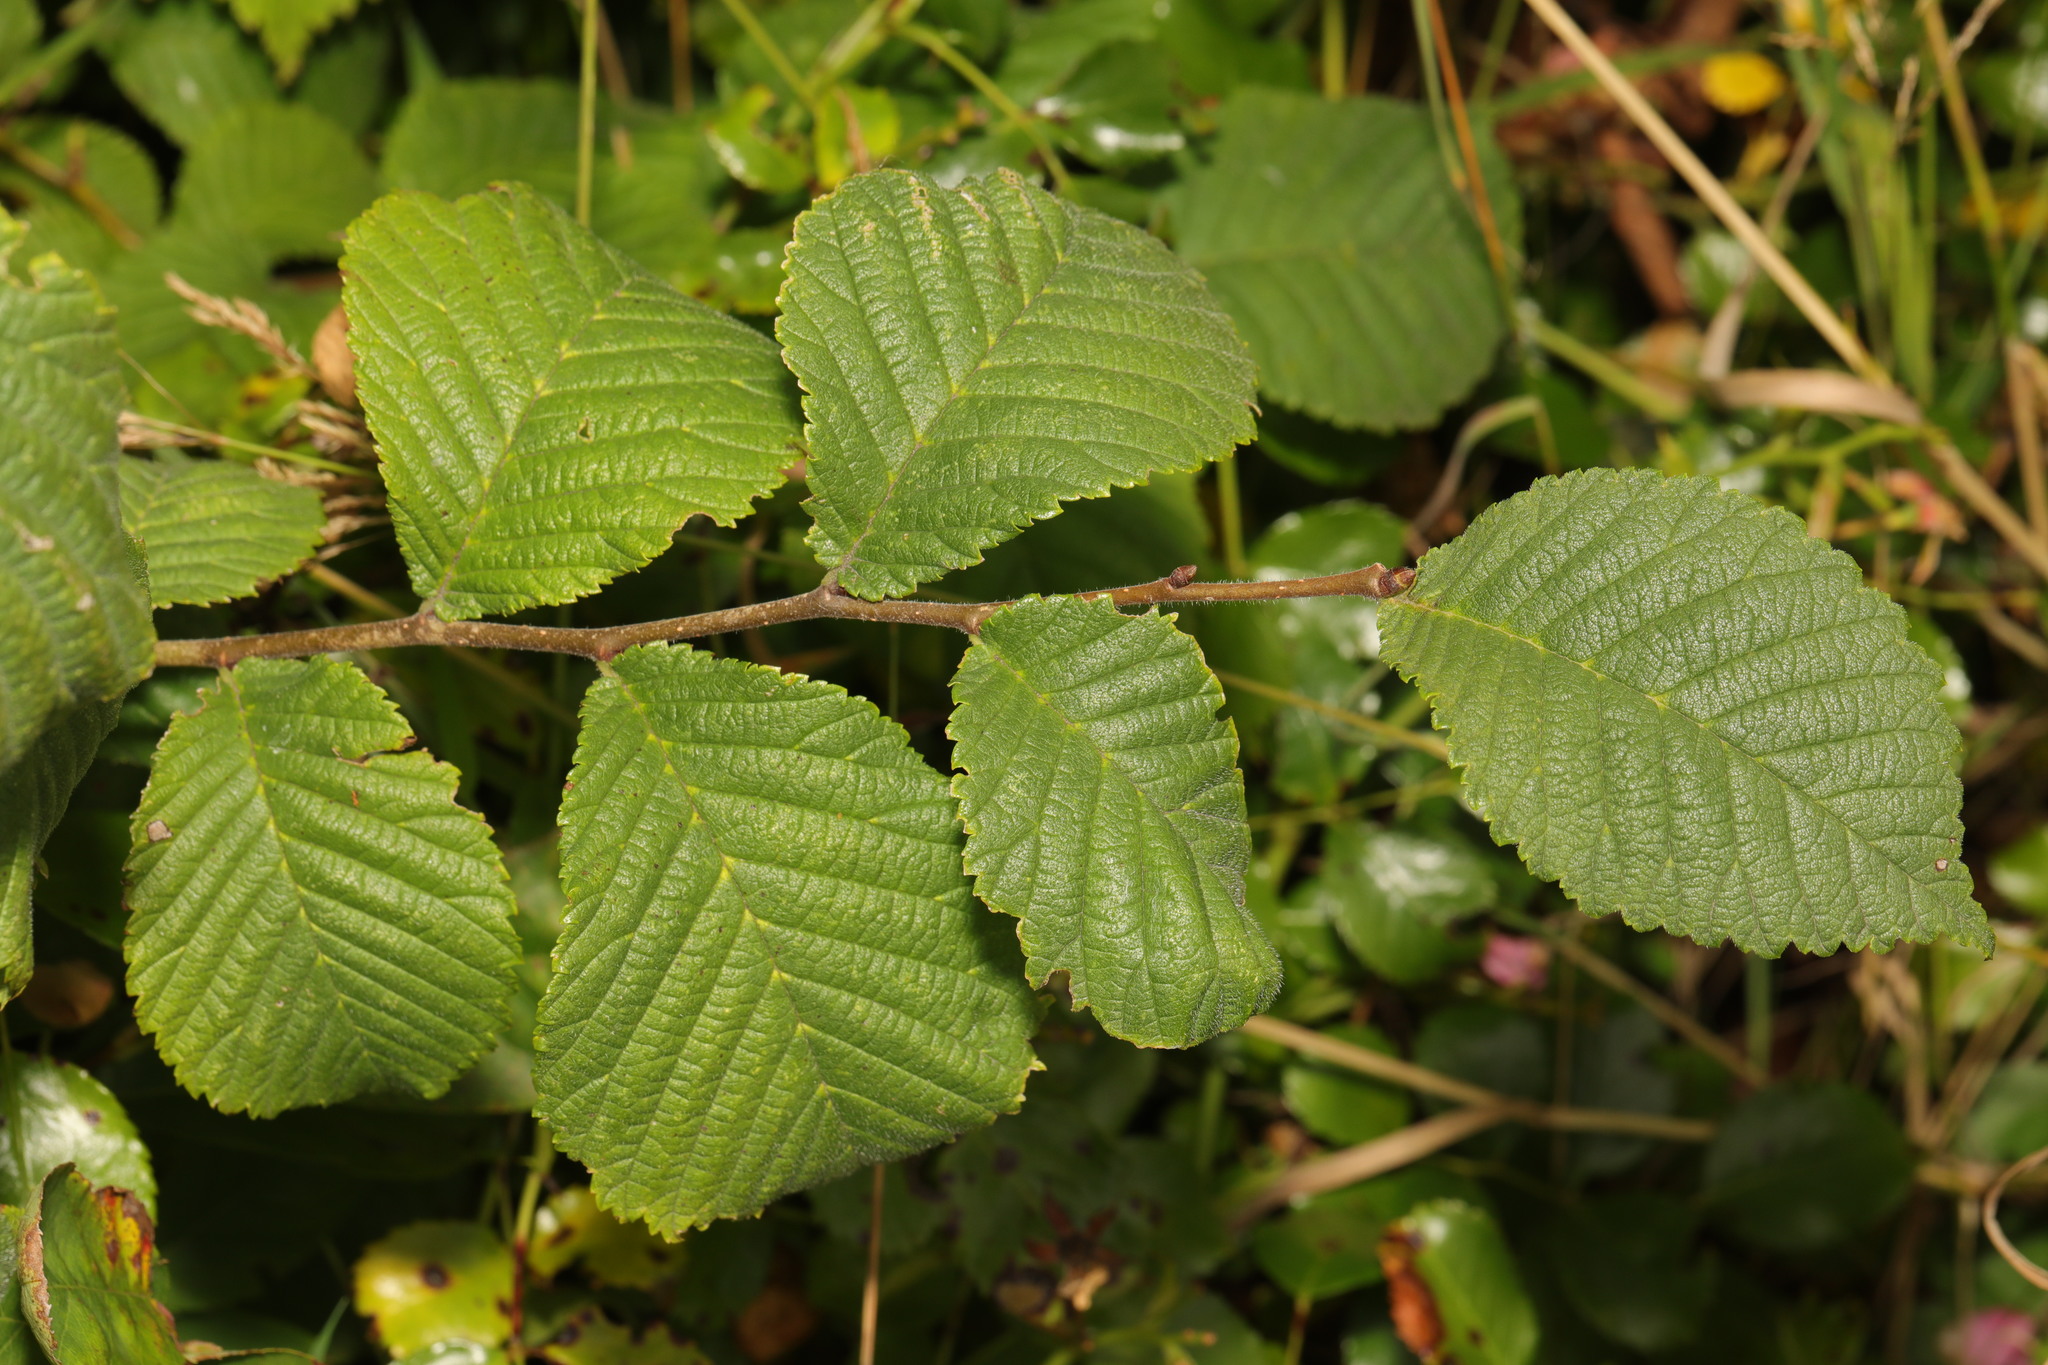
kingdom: Plantae
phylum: Tracheophyta
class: Magnoliopsida
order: Rosales
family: Ulmaceae
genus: Ulmus
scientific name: Ulmus glabra
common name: Wych elm
